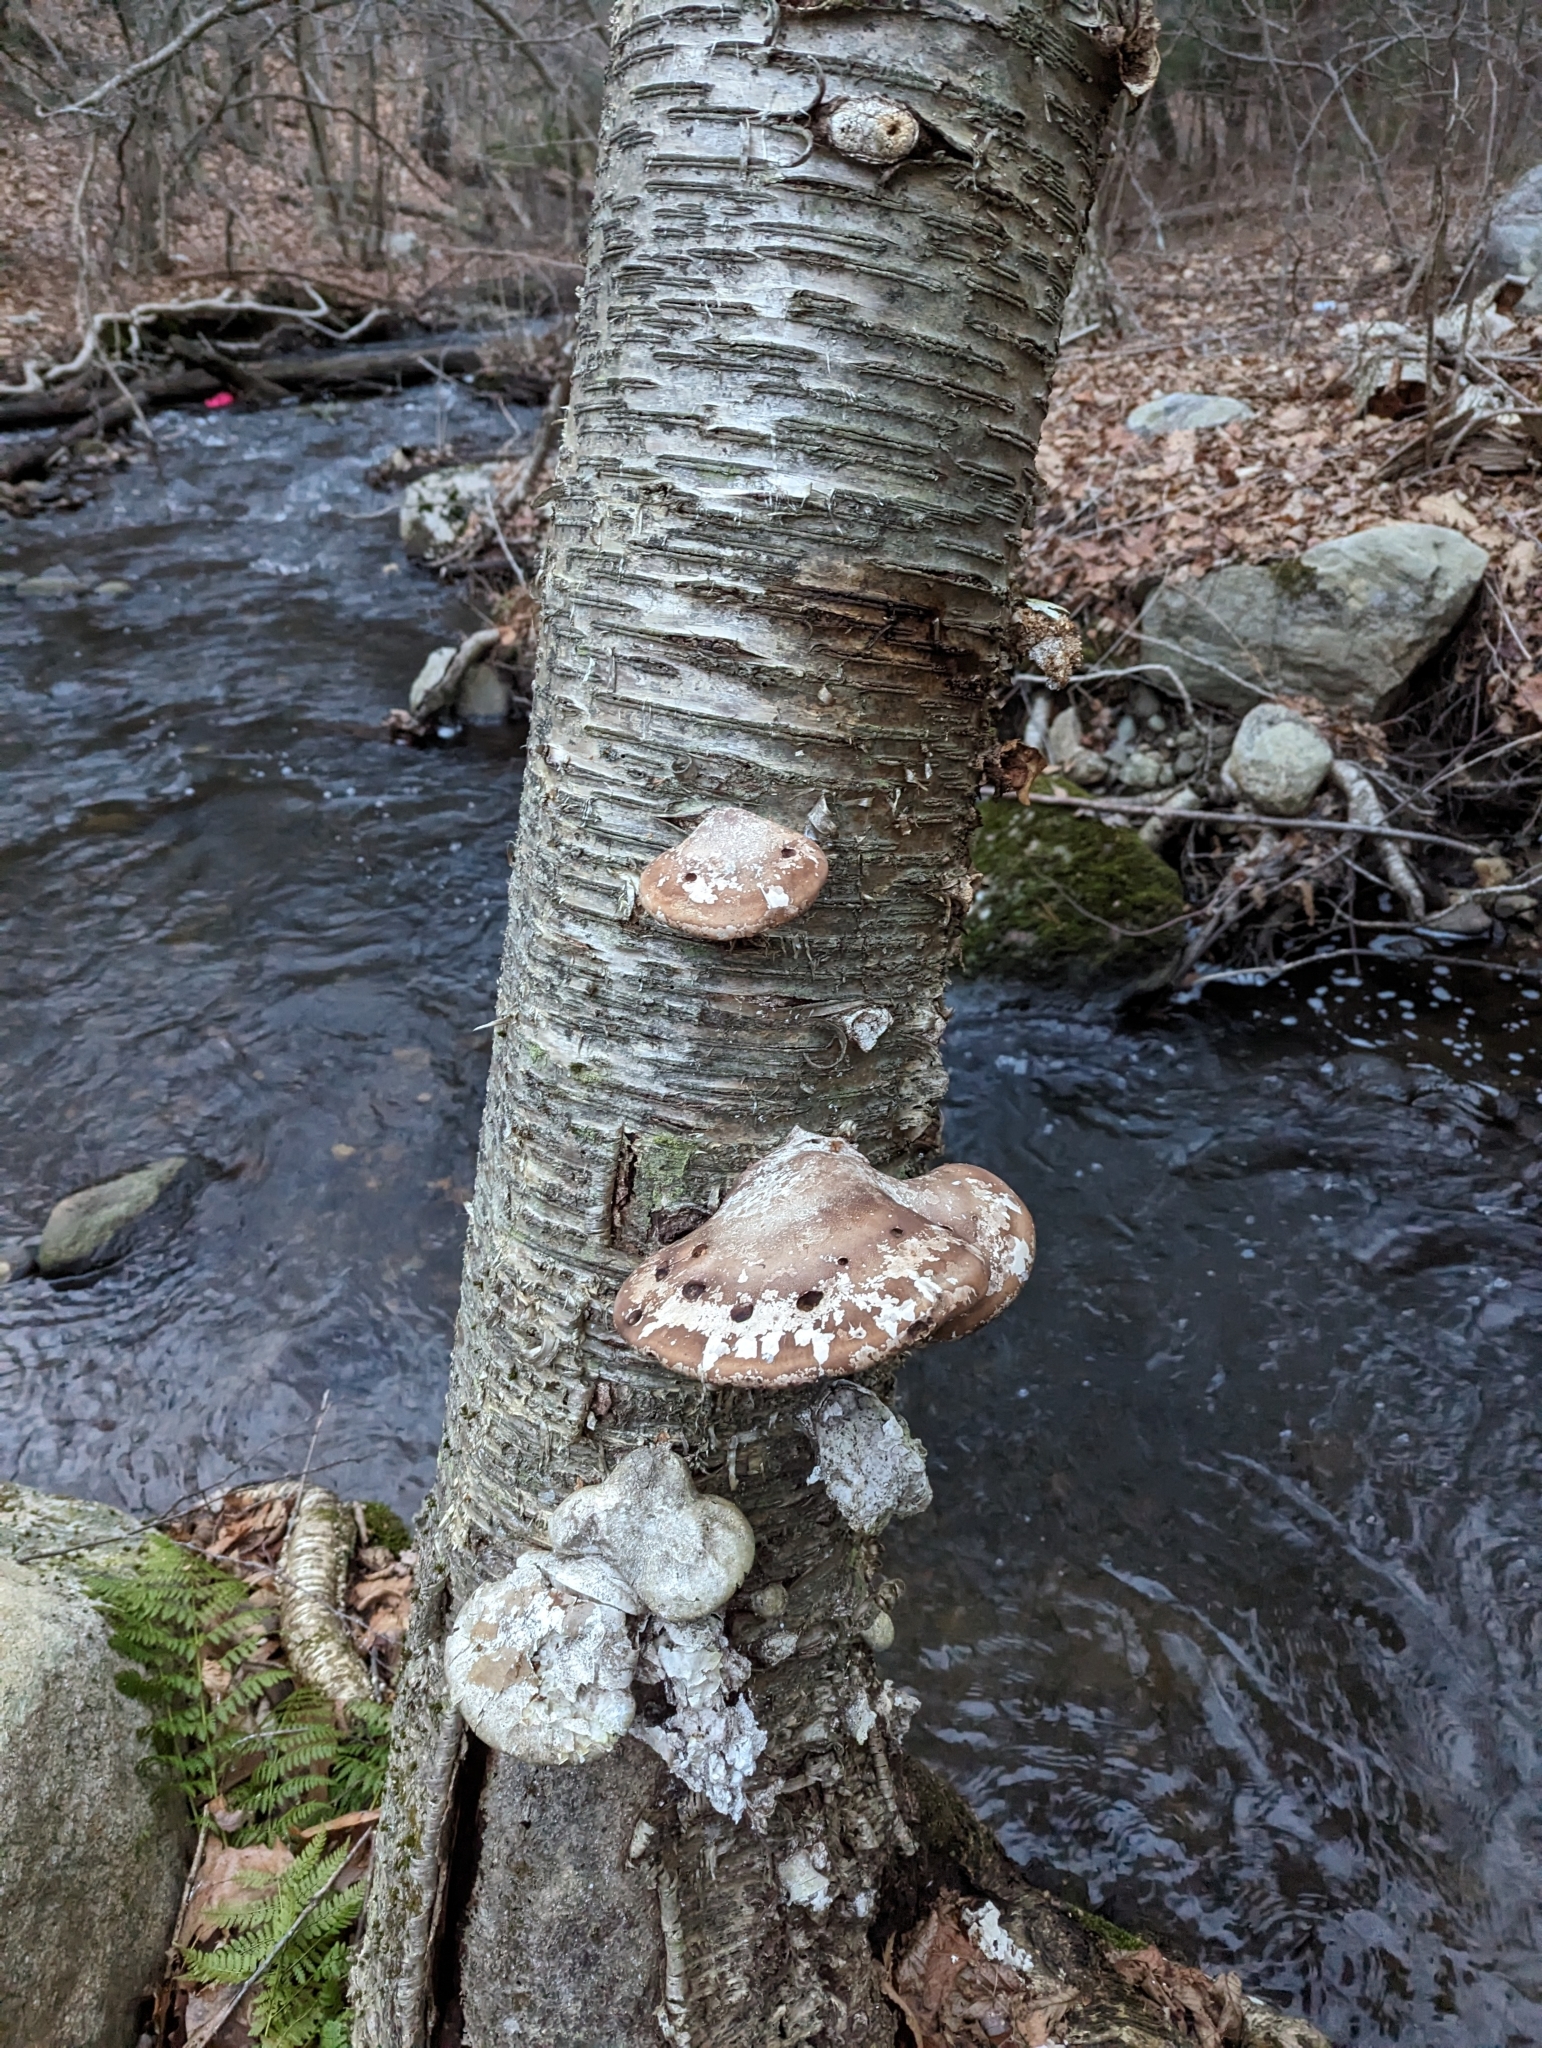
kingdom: Fungi
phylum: Basidiomycota
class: Agaricomycetes
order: Polyporales
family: Fomitopsidaceae
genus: Fomitopsis
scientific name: Fomitopsis betulina
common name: Birch polypore
